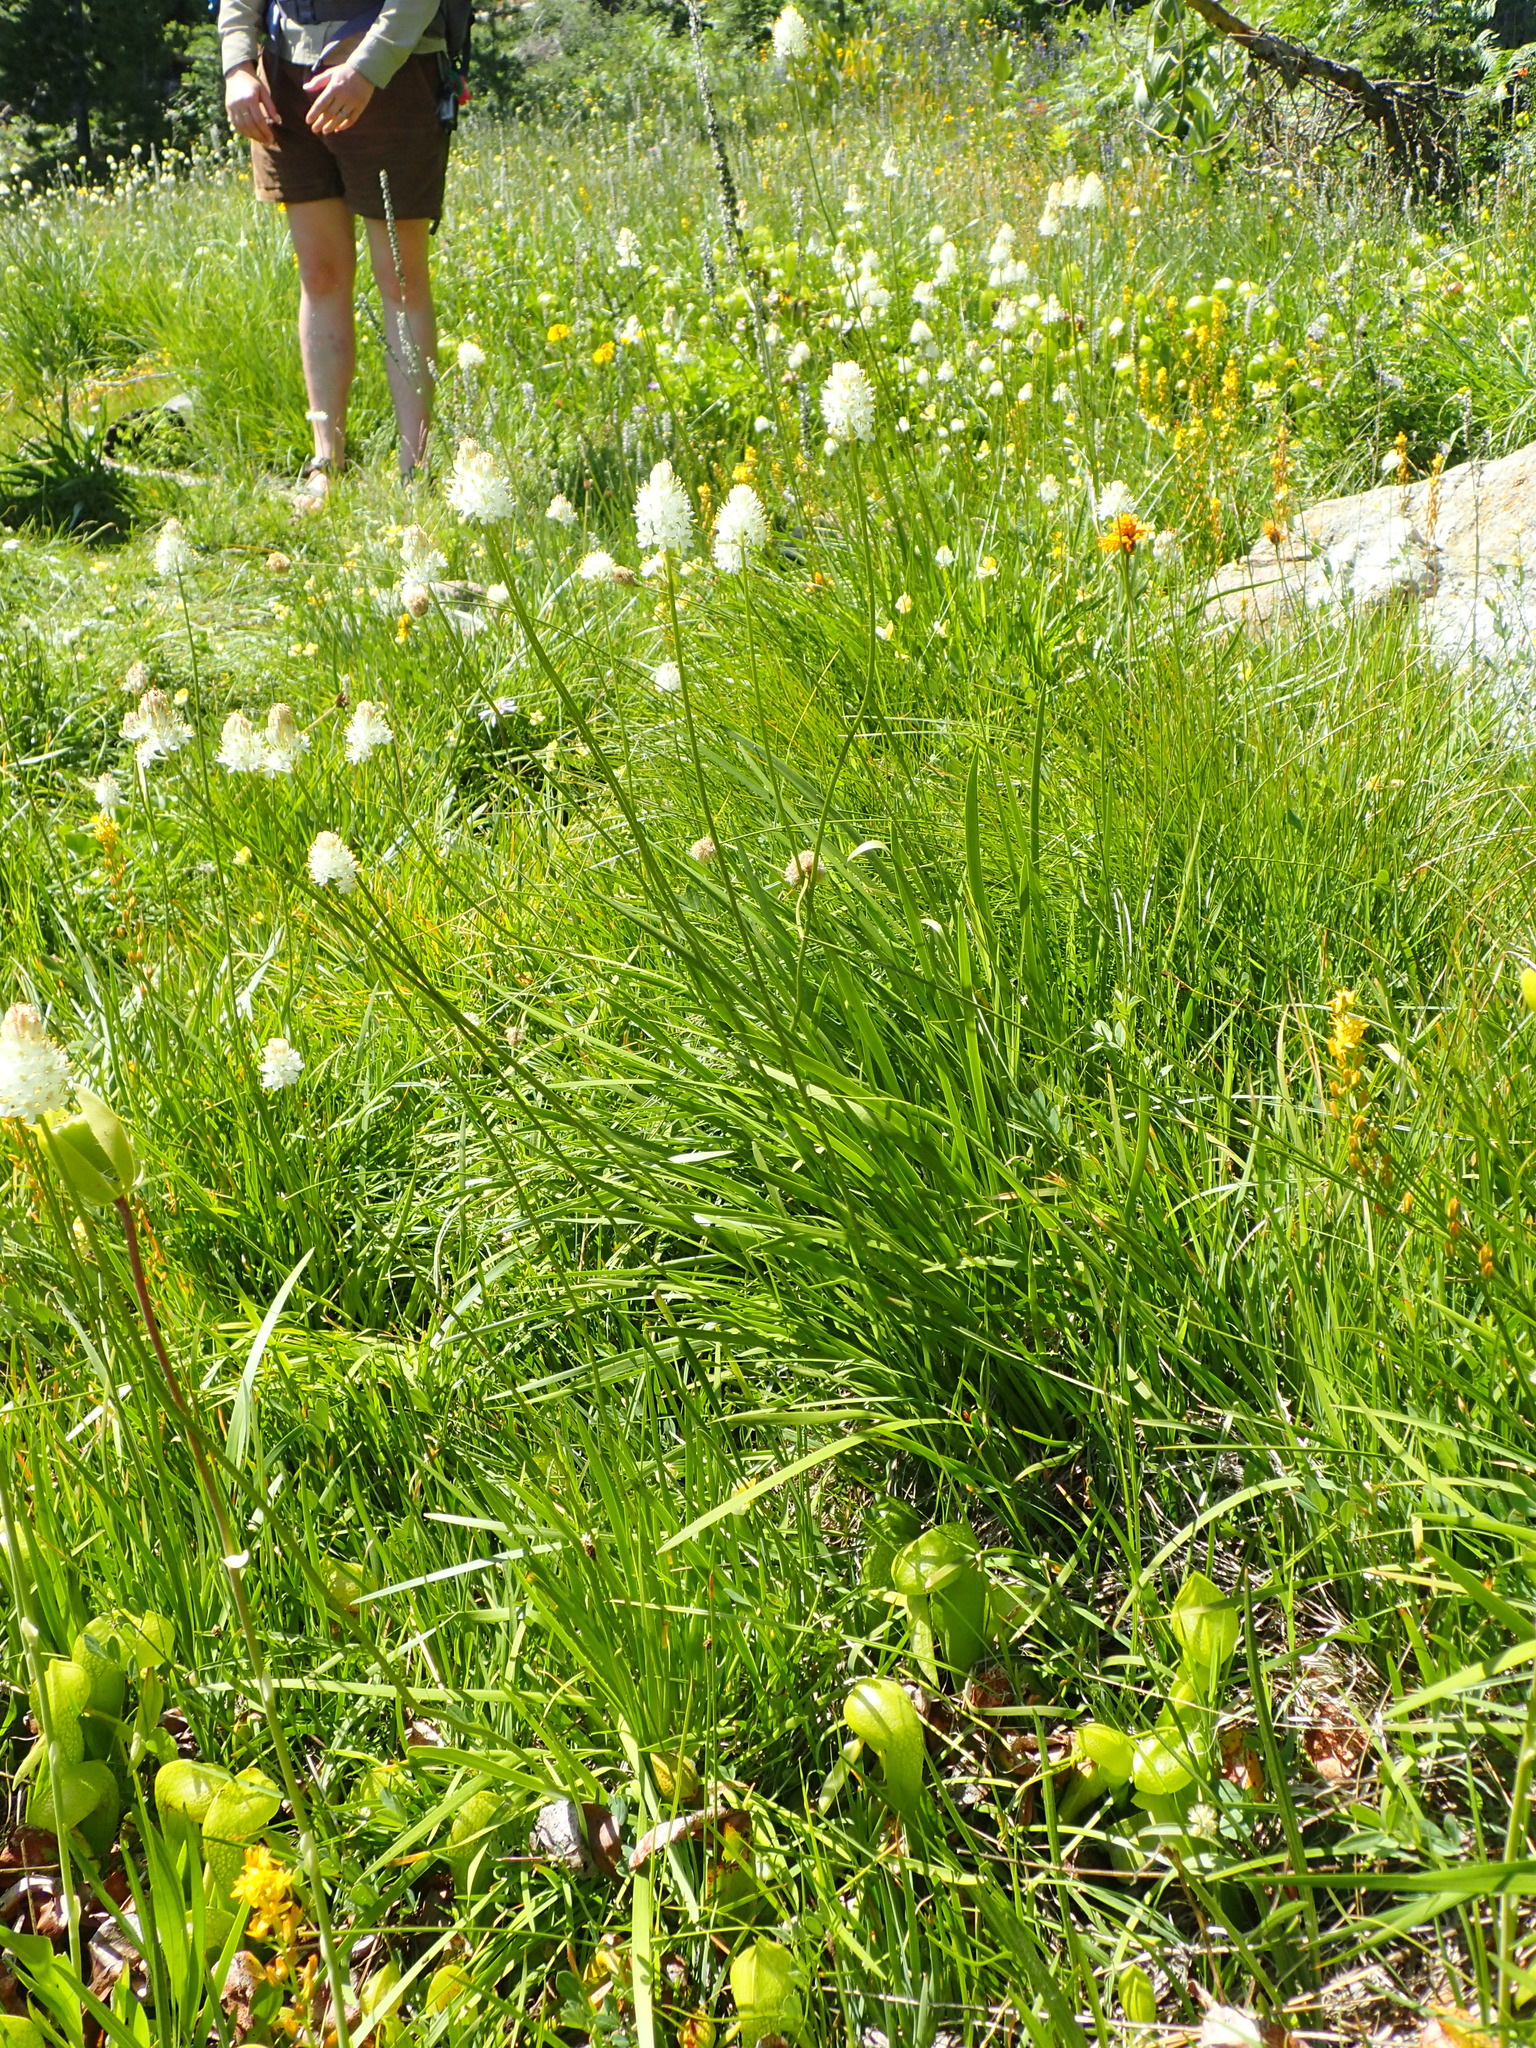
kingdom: Plantae
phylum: Tracheophyta
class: Liliopsida
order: Alismatales
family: Tofieldiaceae
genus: Triantha
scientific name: Triantha occidentalis
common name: Western false asphodel
